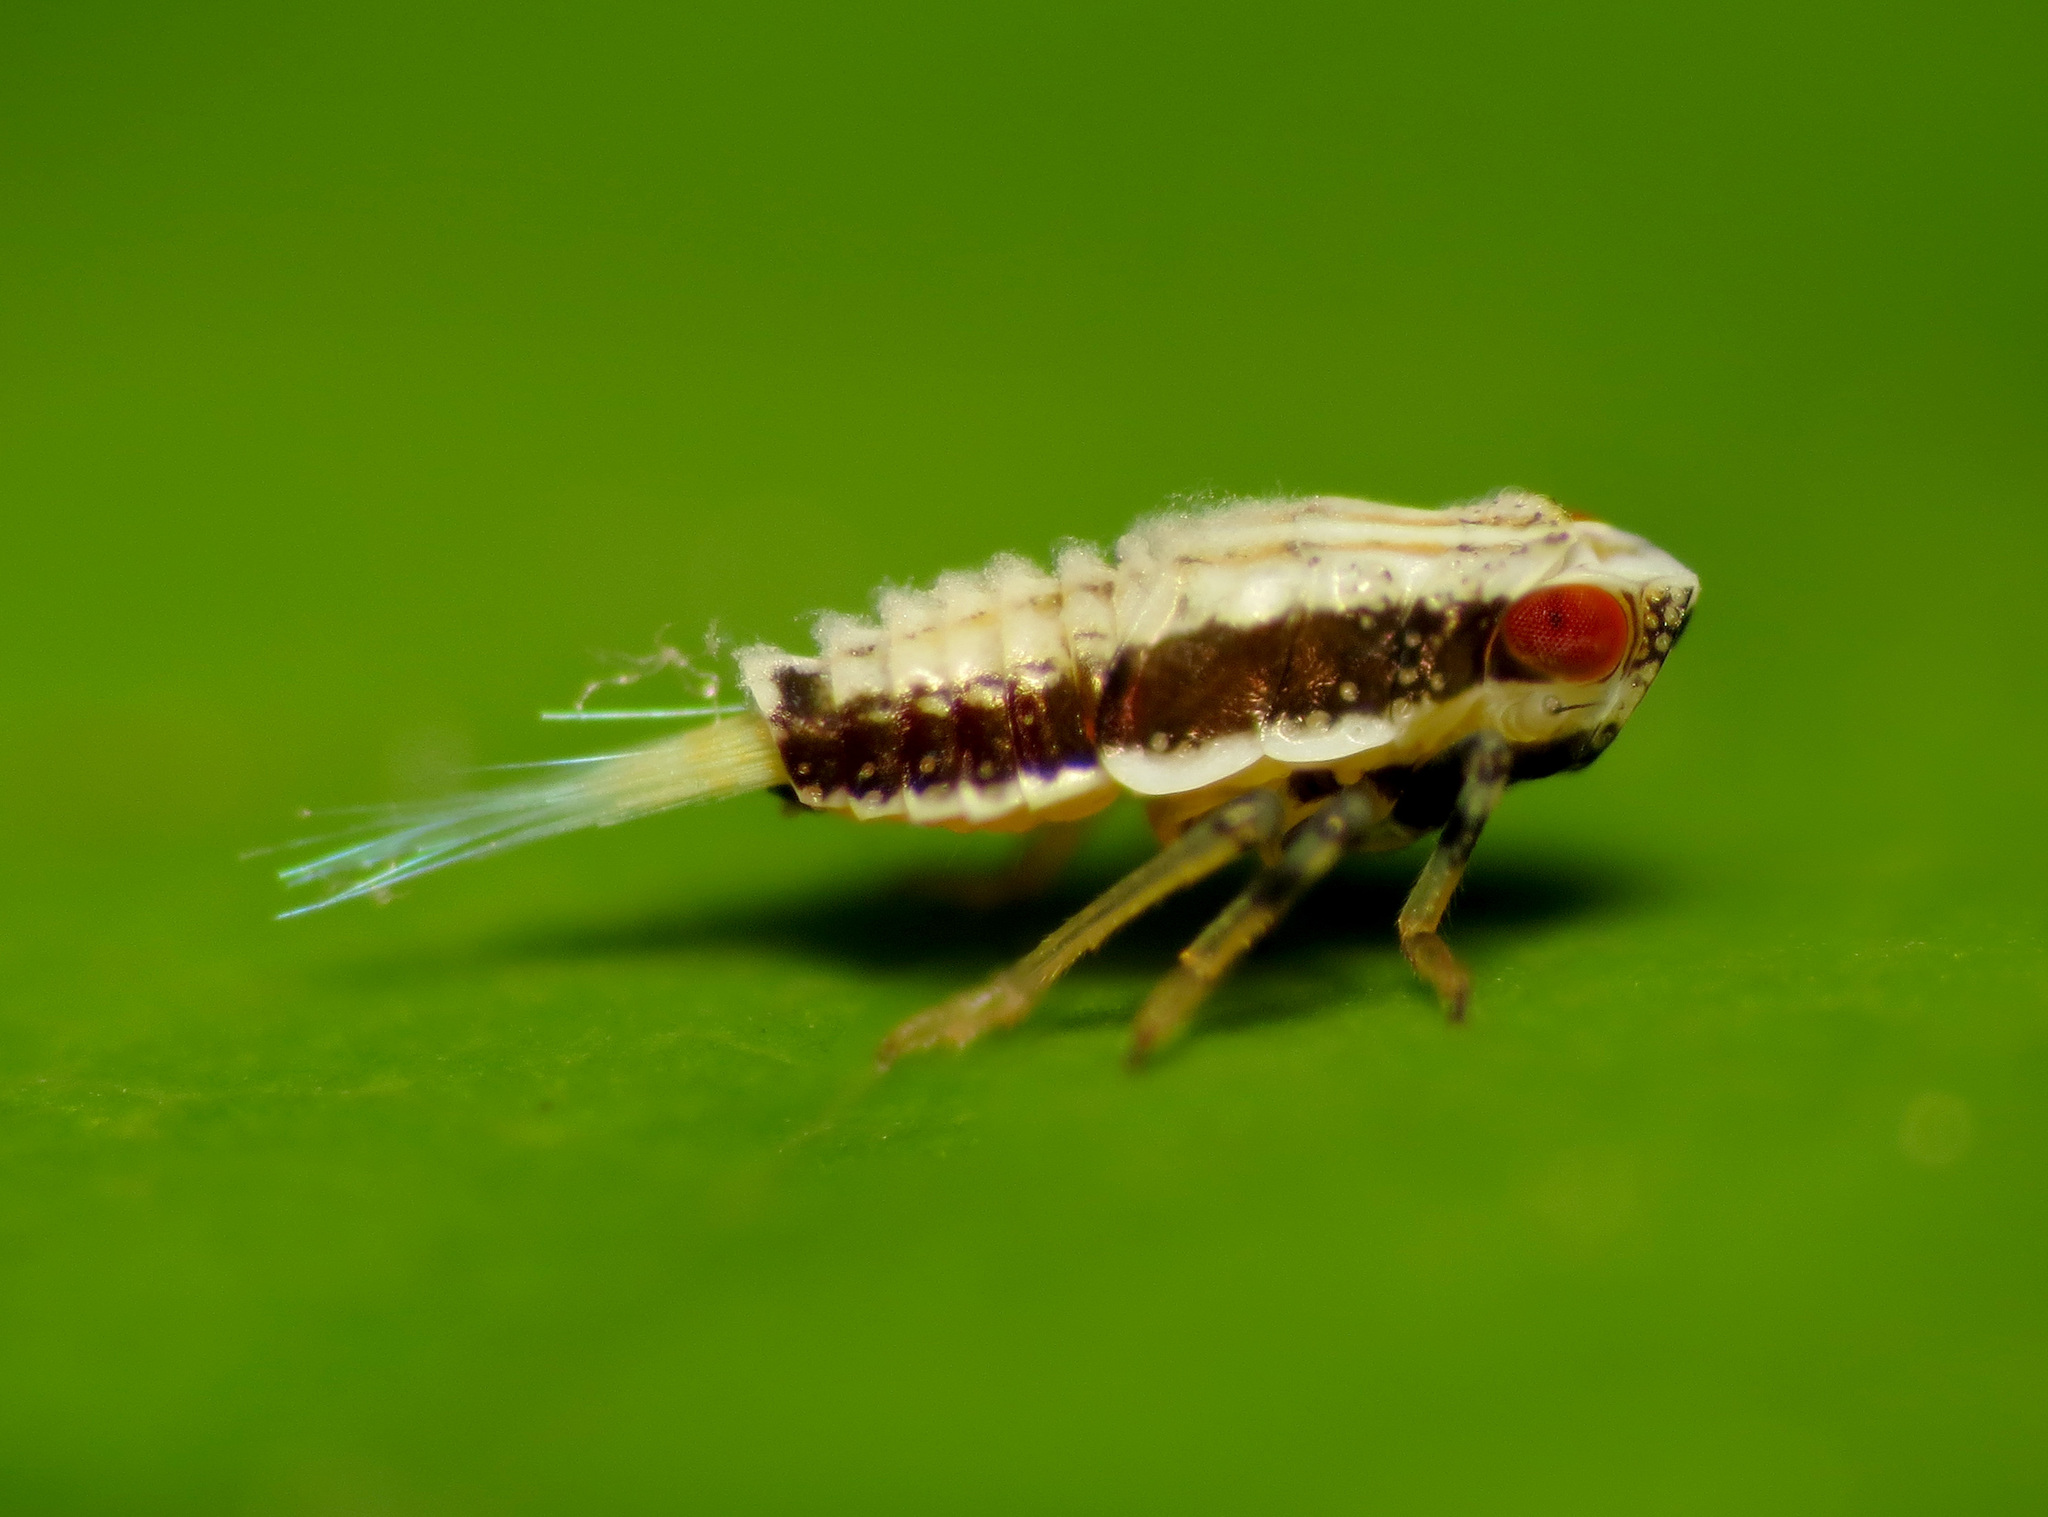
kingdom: Animalia
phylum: Arthropoda
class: Insecta
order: Hemiptera
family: Issidae
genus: Thionia
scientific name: Thionia bullata
